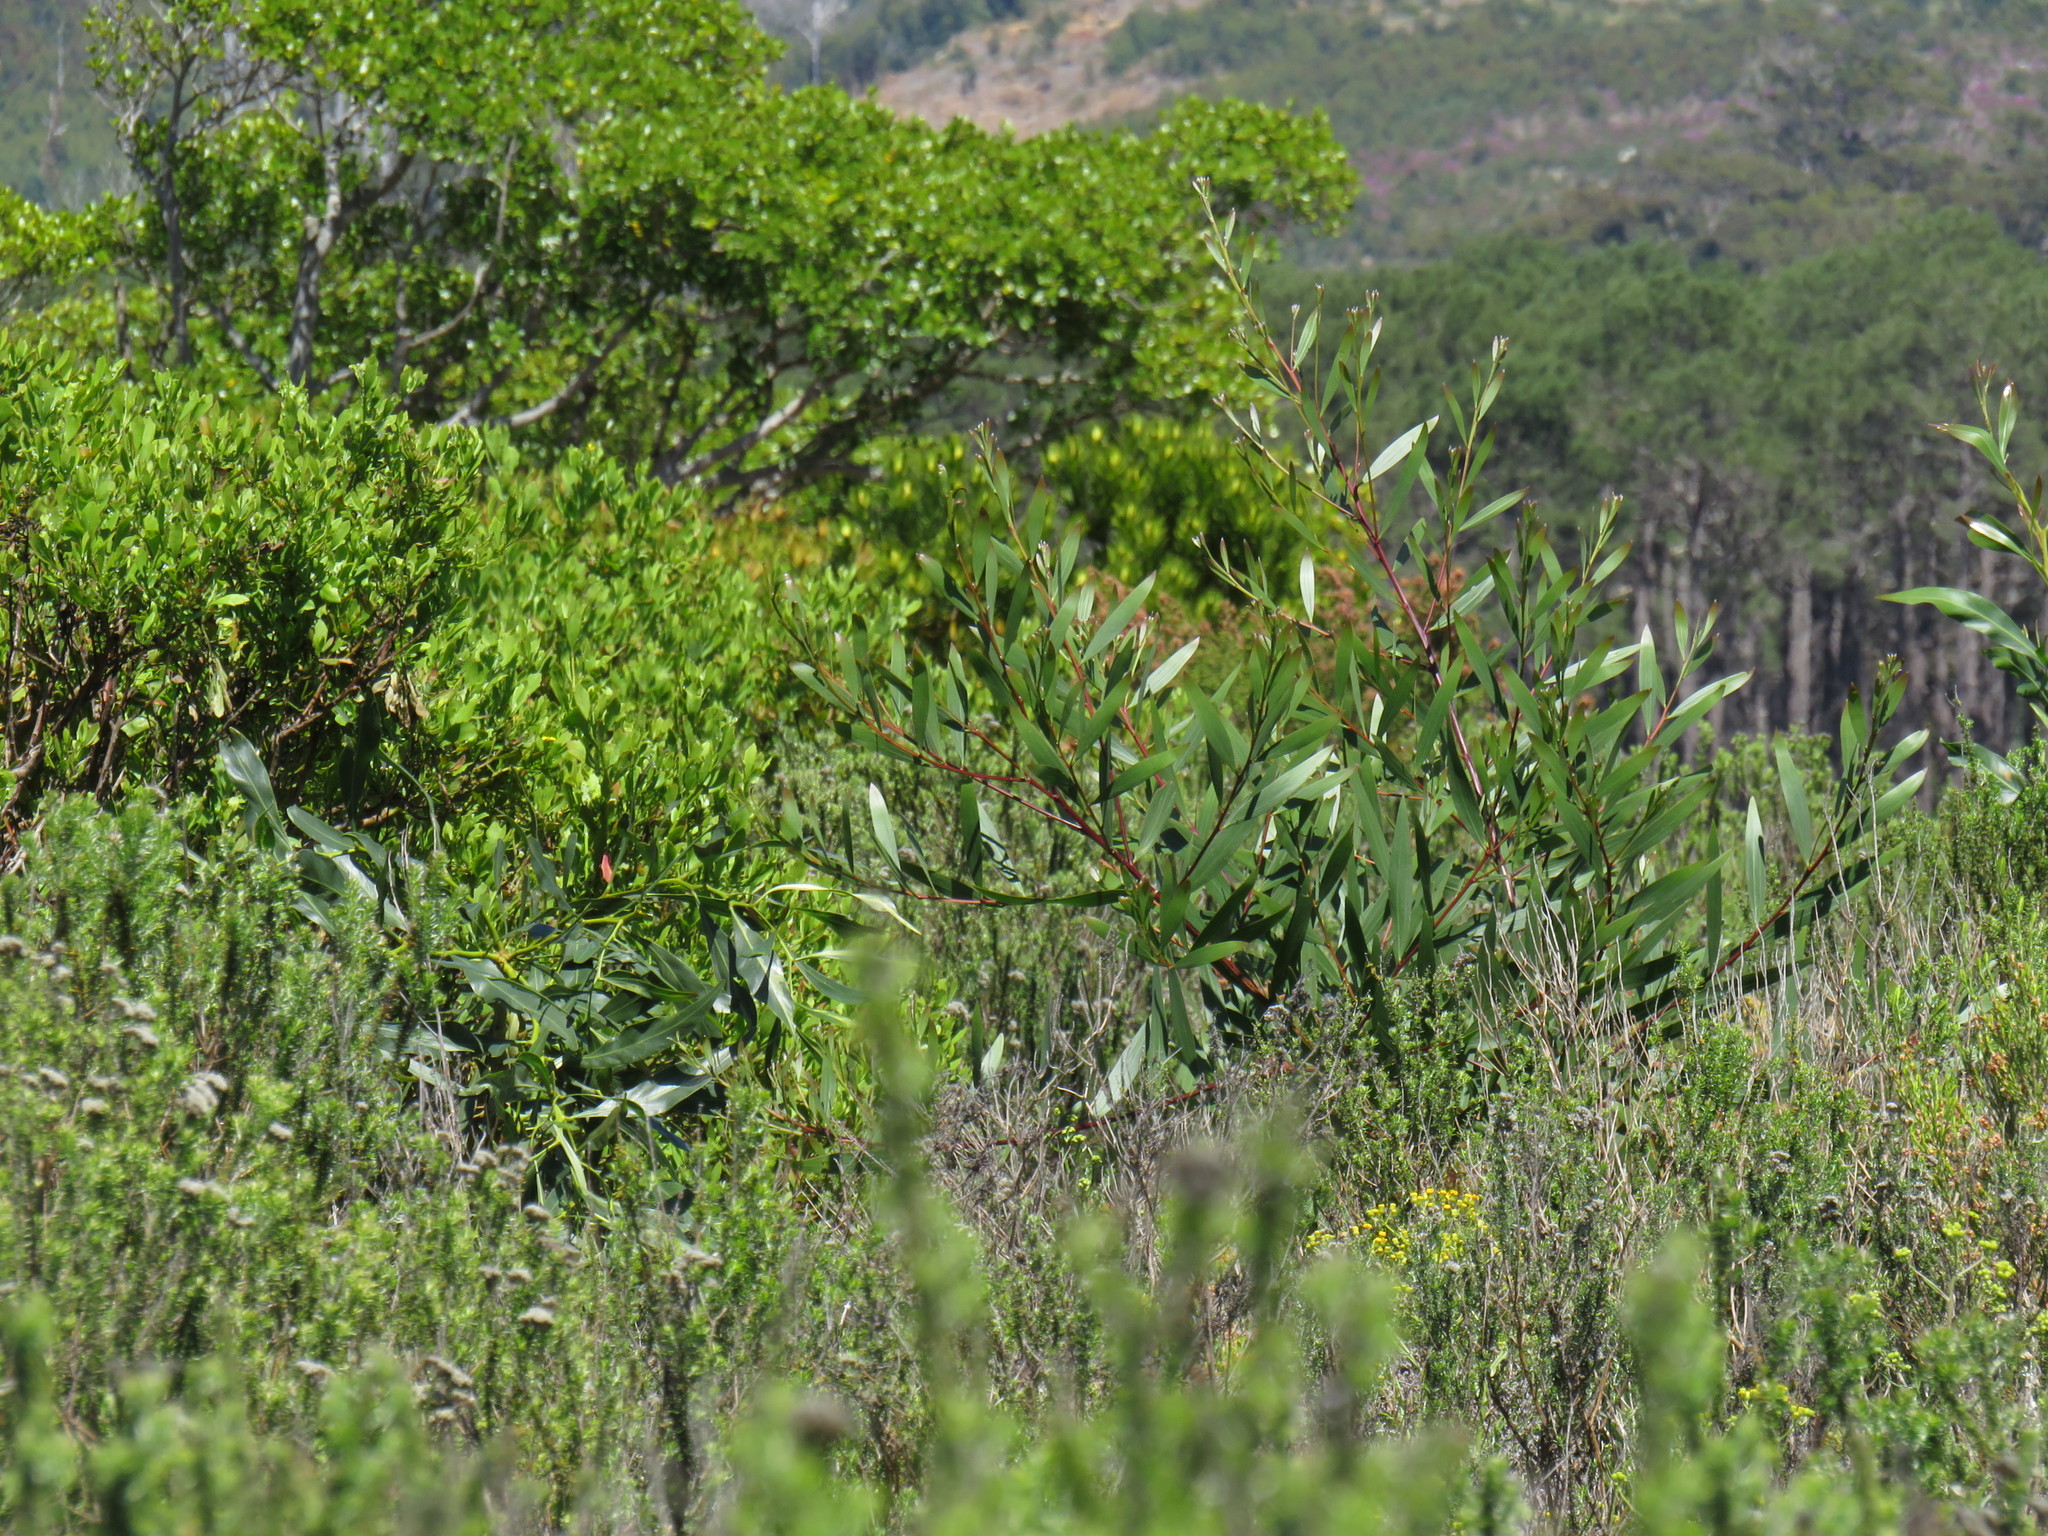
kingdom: Plantae
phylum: Tracheophyta
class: Magnoliopsida
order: Fabales
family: Fabaceae
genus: Acacia
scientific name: Acacia longifolia
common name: Sydney golden wattle
